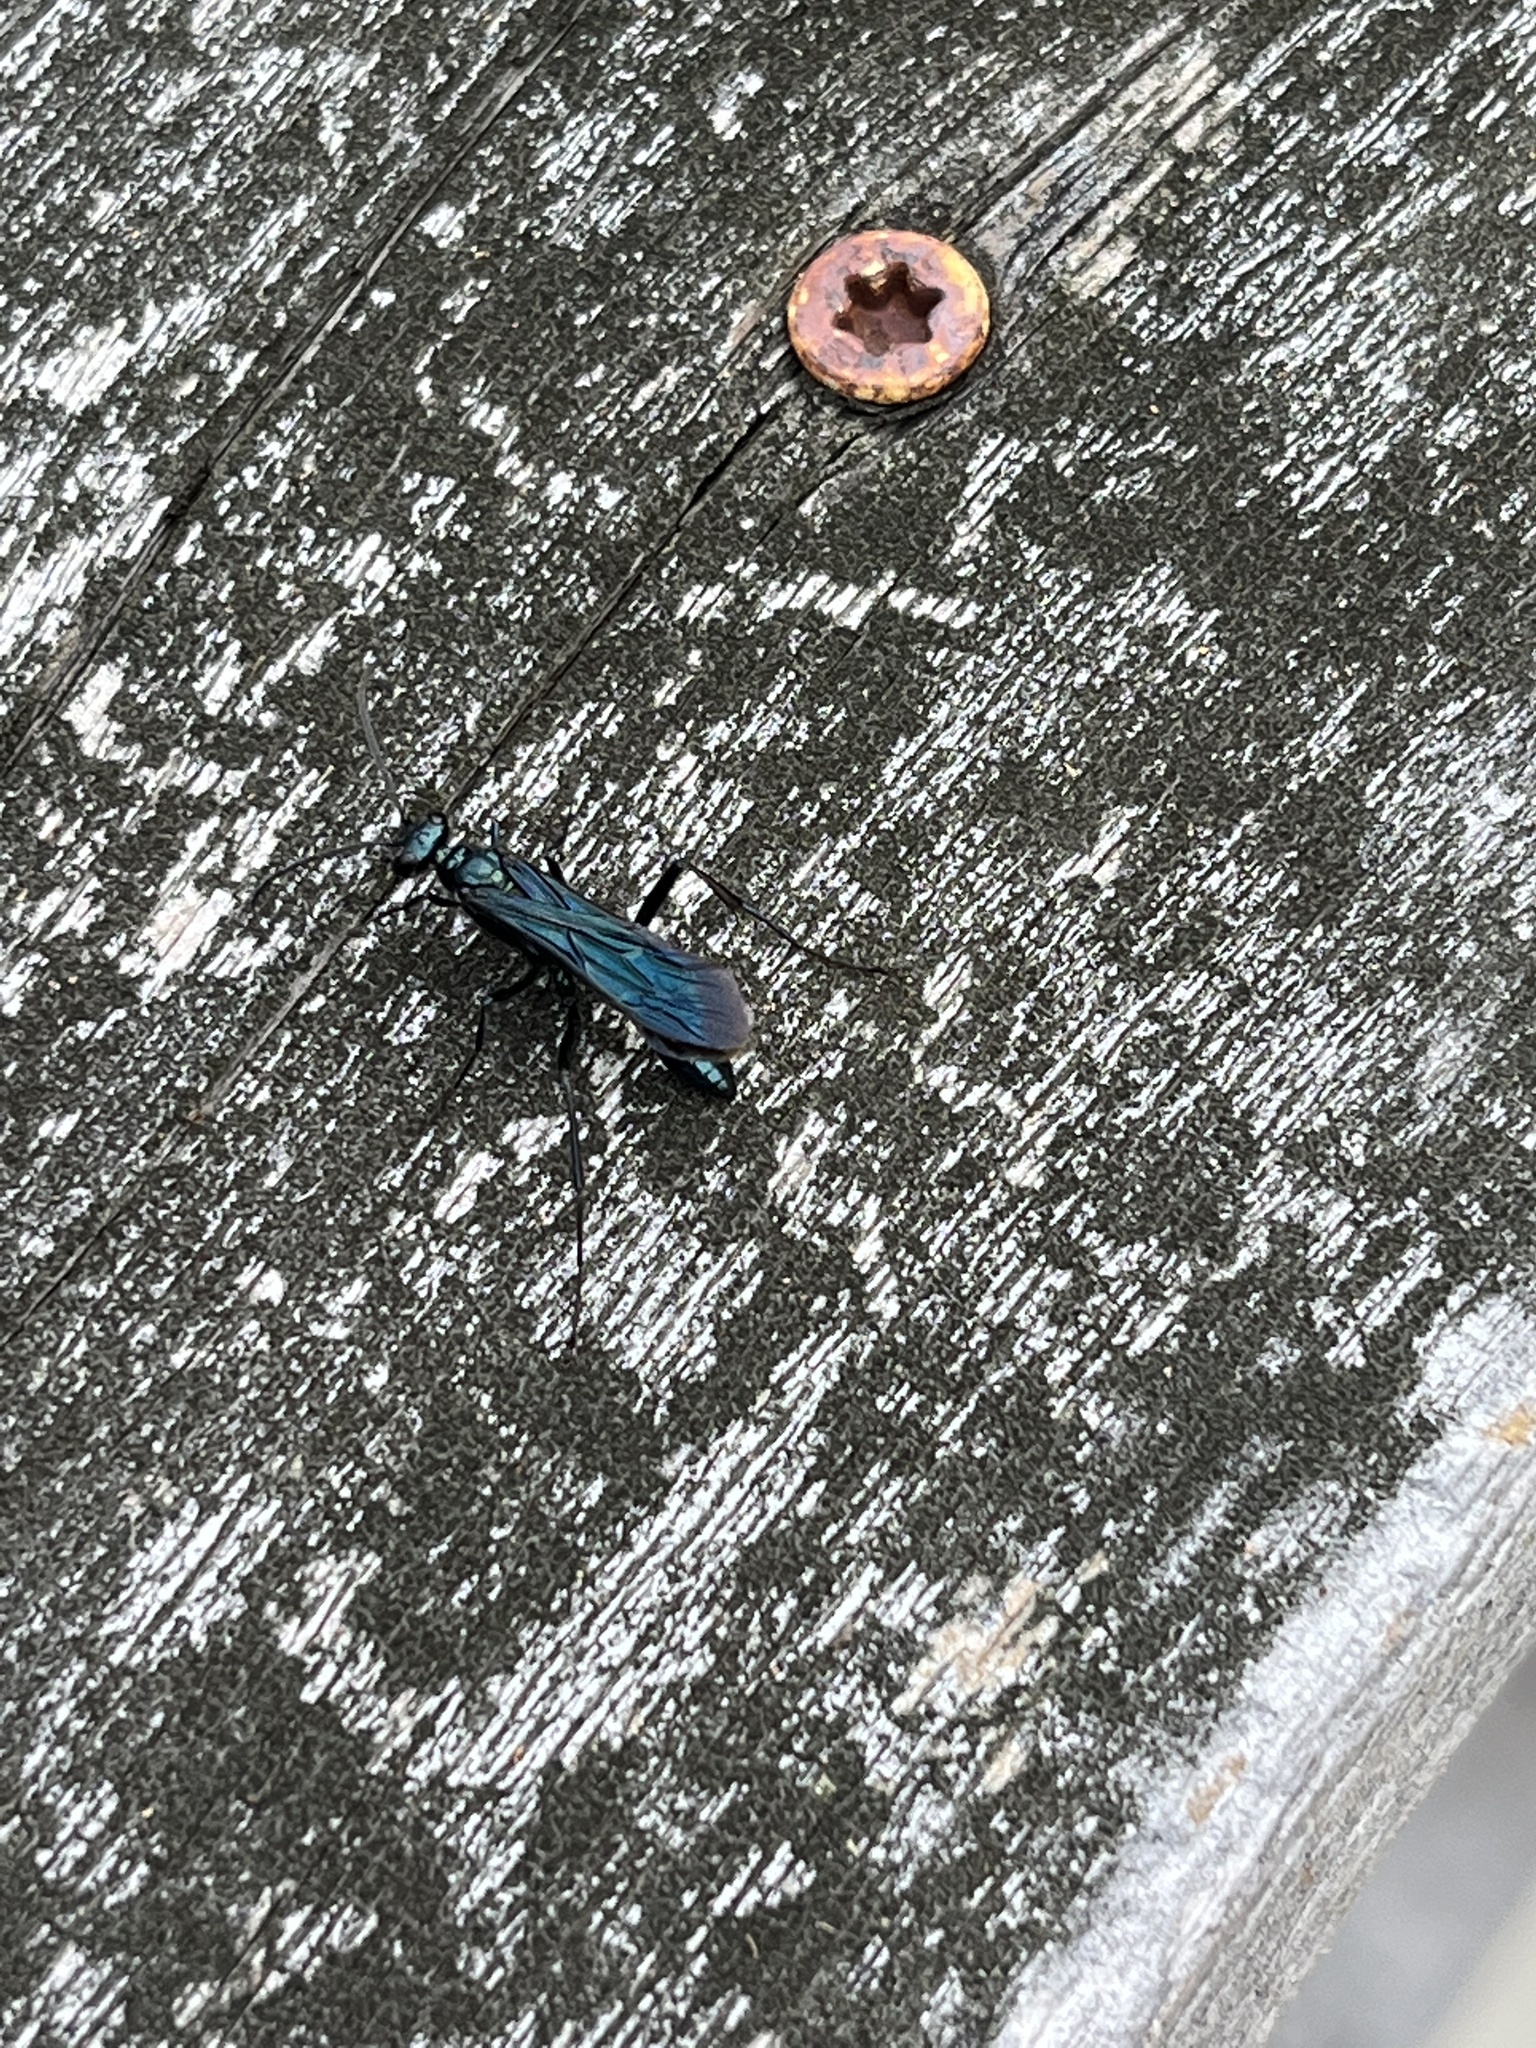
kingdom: Animalia
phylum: Arthropoda
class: Insecta
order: Hymenoptera
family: Sphecidae
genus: Chalybion
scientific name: Chalybion californicum
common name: Mud dauber
